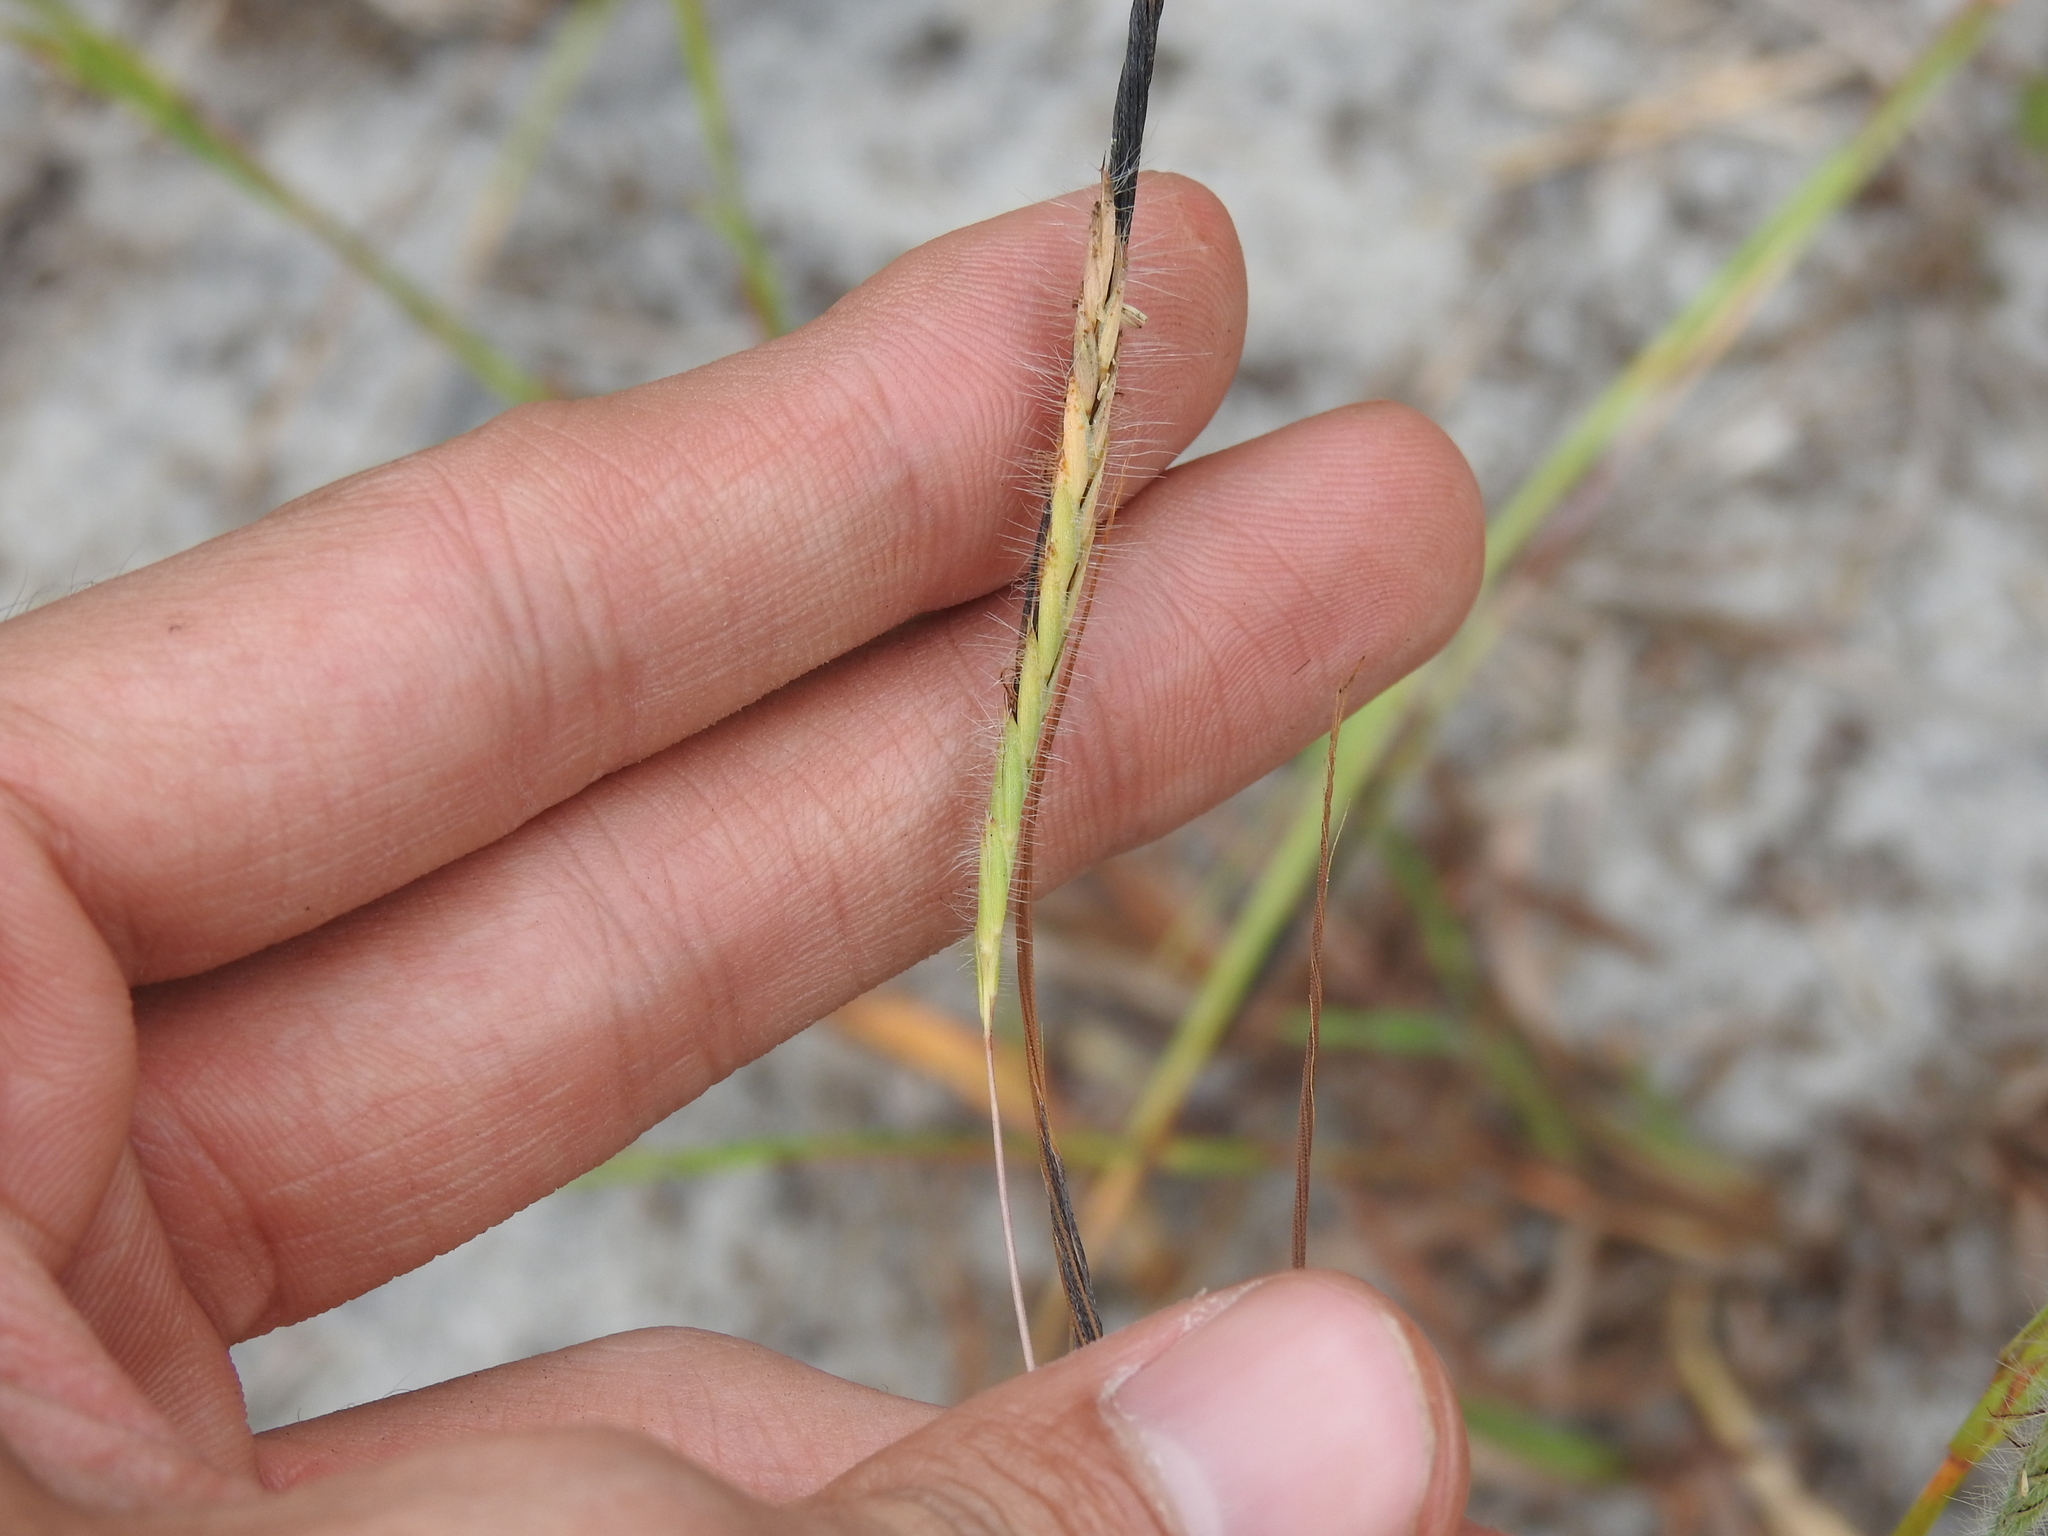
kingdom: Plantae
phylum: Tracheophyta
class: Liliopsida
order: Poales
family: Poaceae
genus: Heteropogon
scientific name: Heteropogon contortus
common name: Tanglehead
